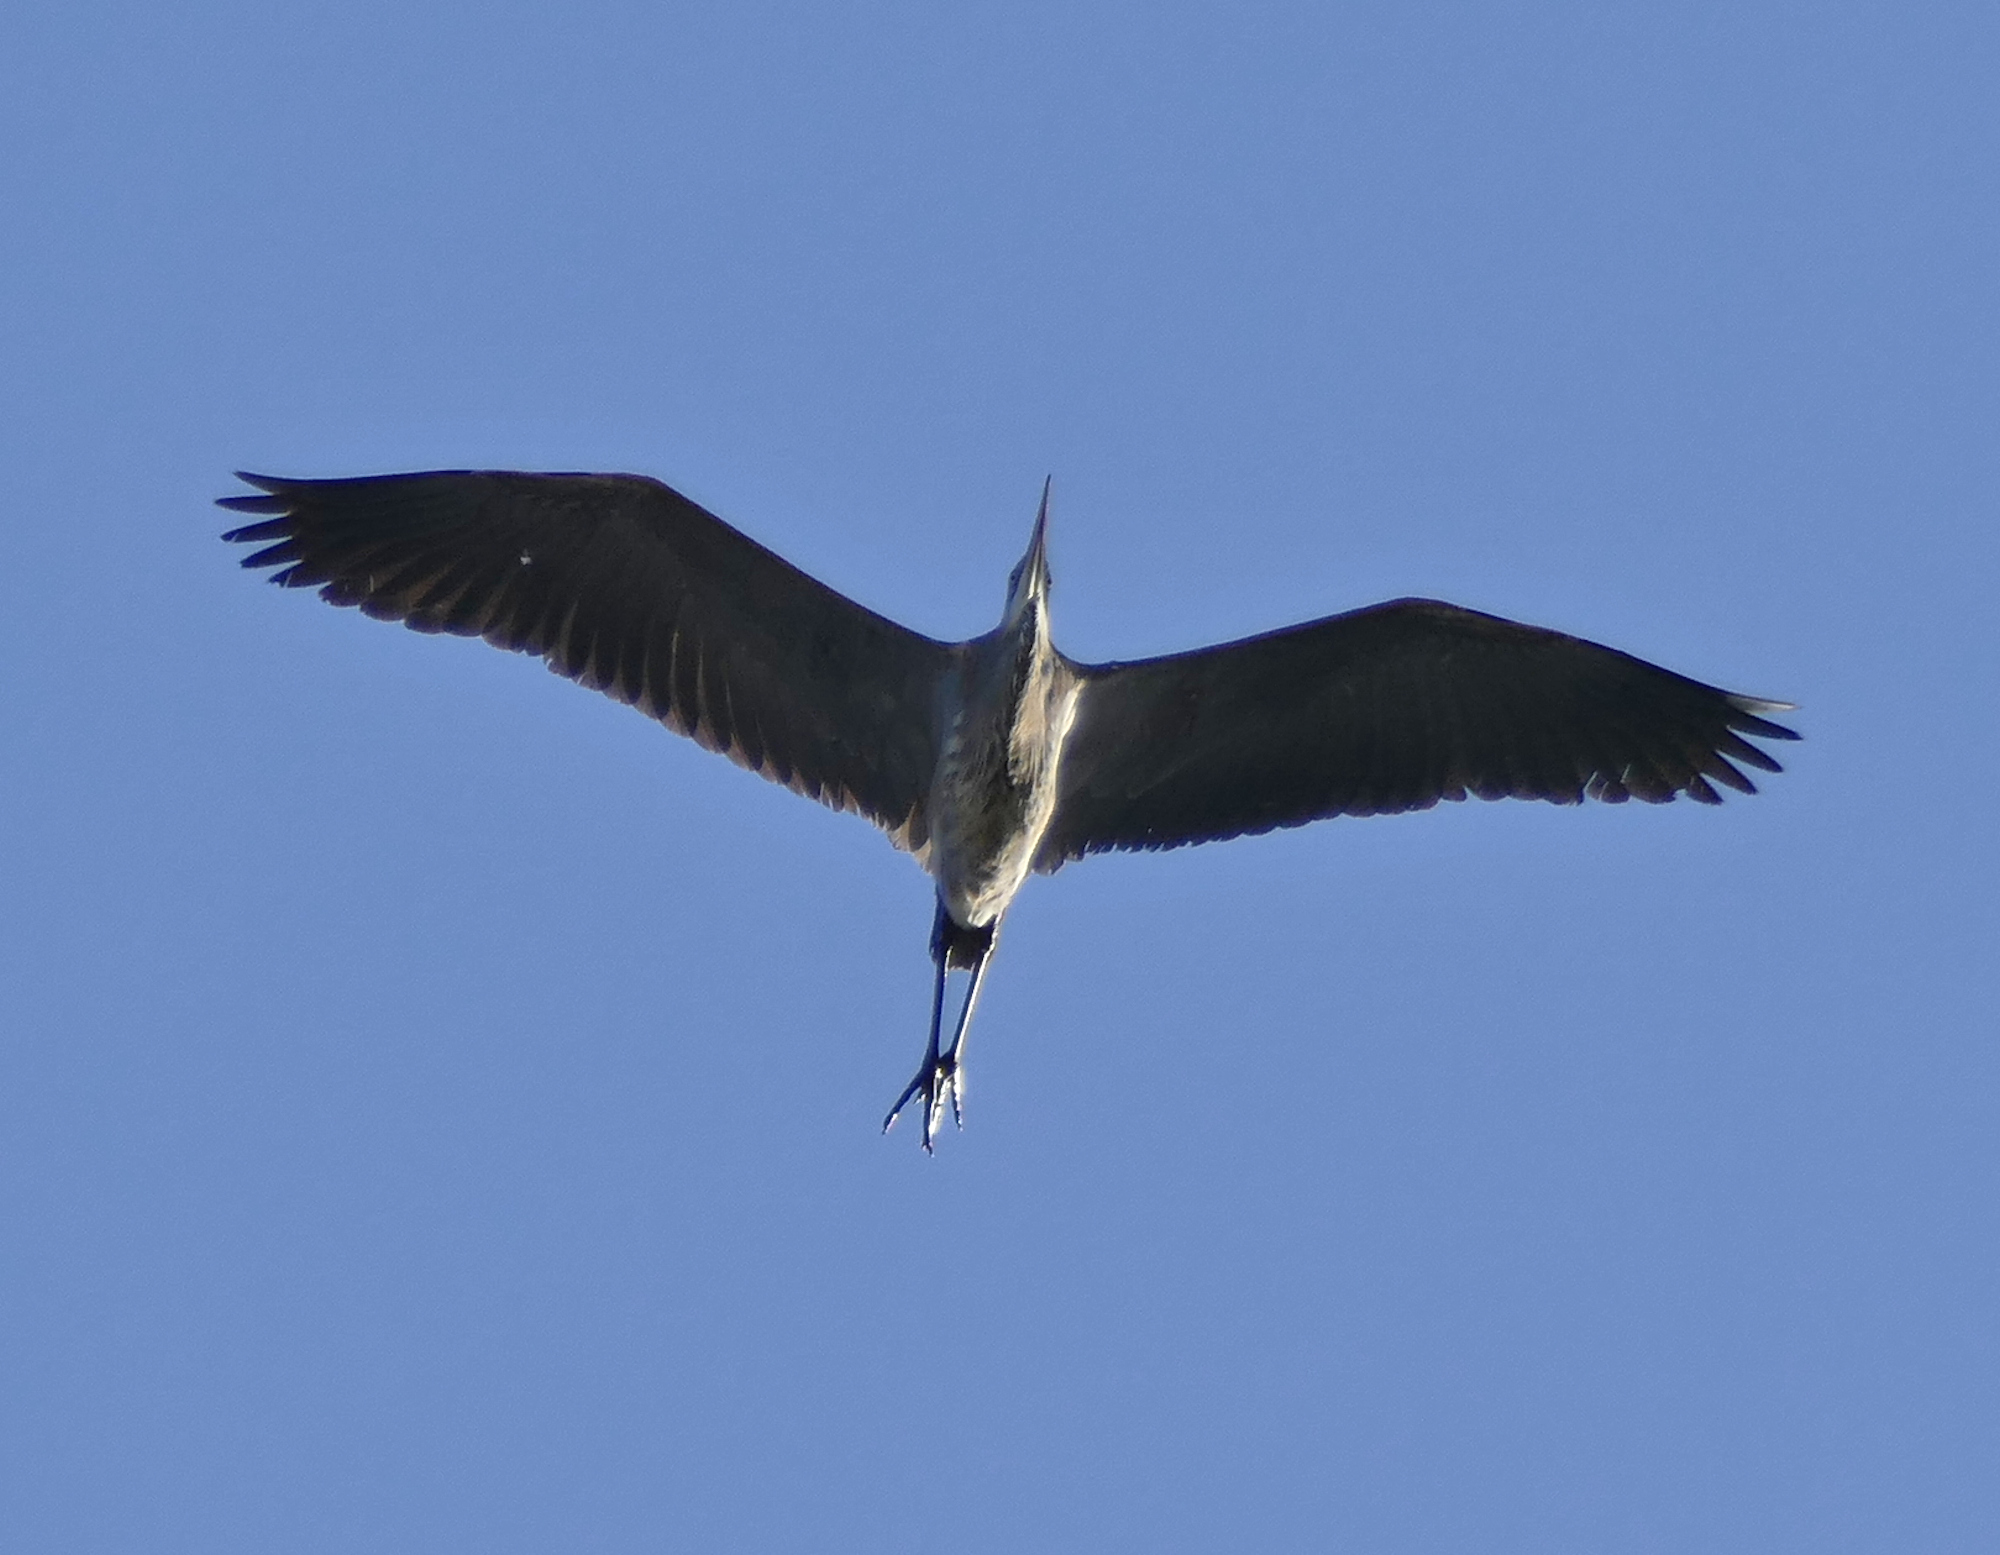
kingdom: Animalia
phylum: Chordata
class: Aves
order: Pelecaniformes
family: Ardeidae
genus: Ardea
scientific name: Ardea herodias
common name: Great blue heron
